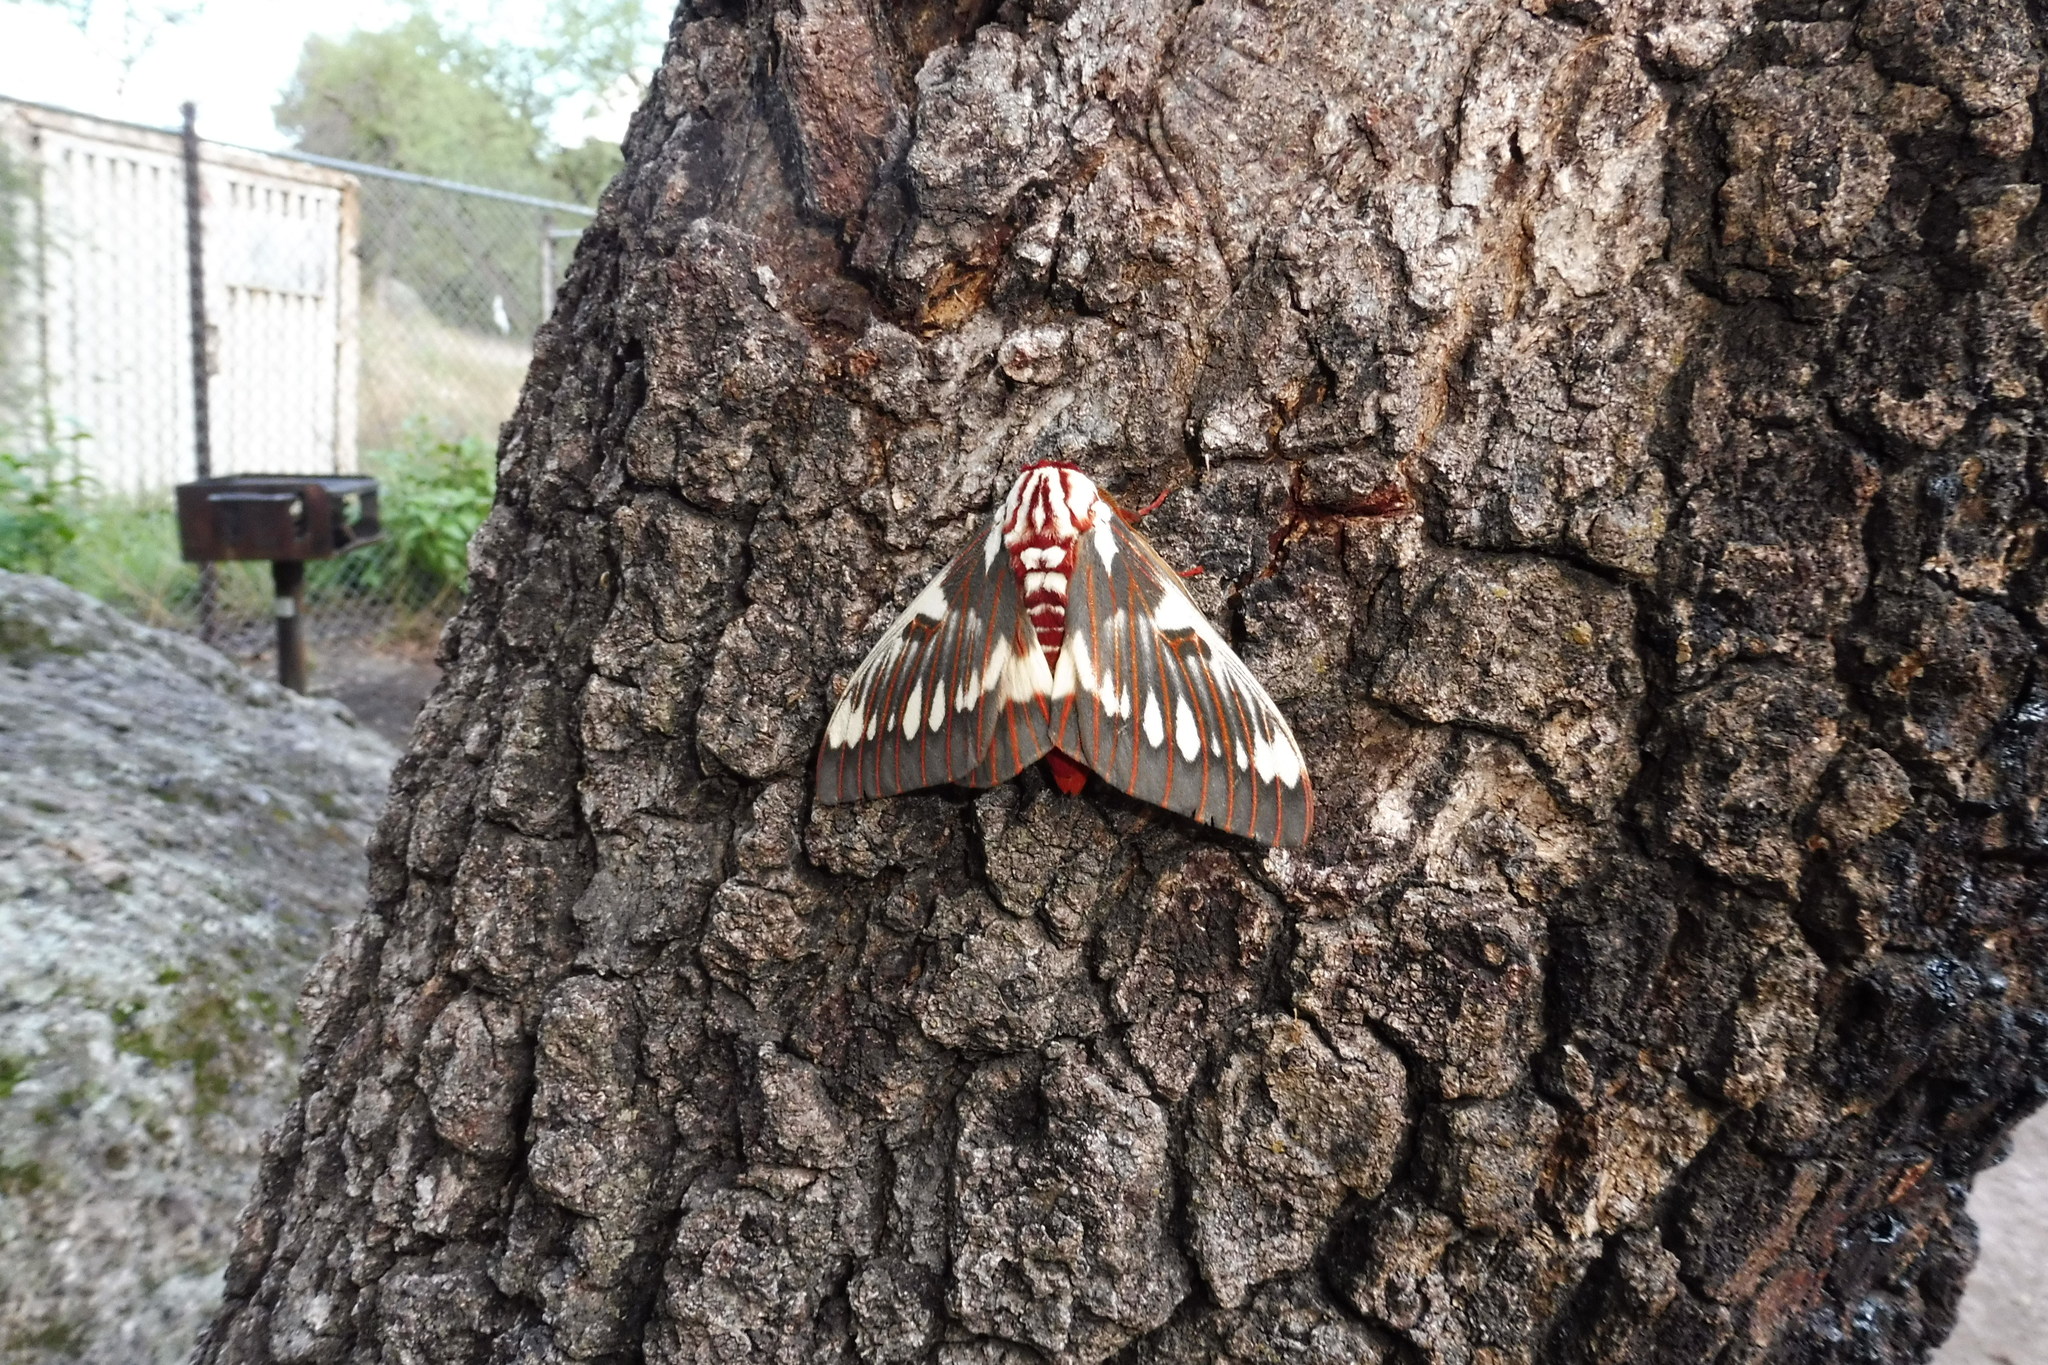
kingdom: Animalia
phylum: Arthropoda
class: Insecta
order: Lepidoptera
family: Saturniidae
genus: Citheronia
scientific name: Citheronia splendens
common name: Splendid royal moth
